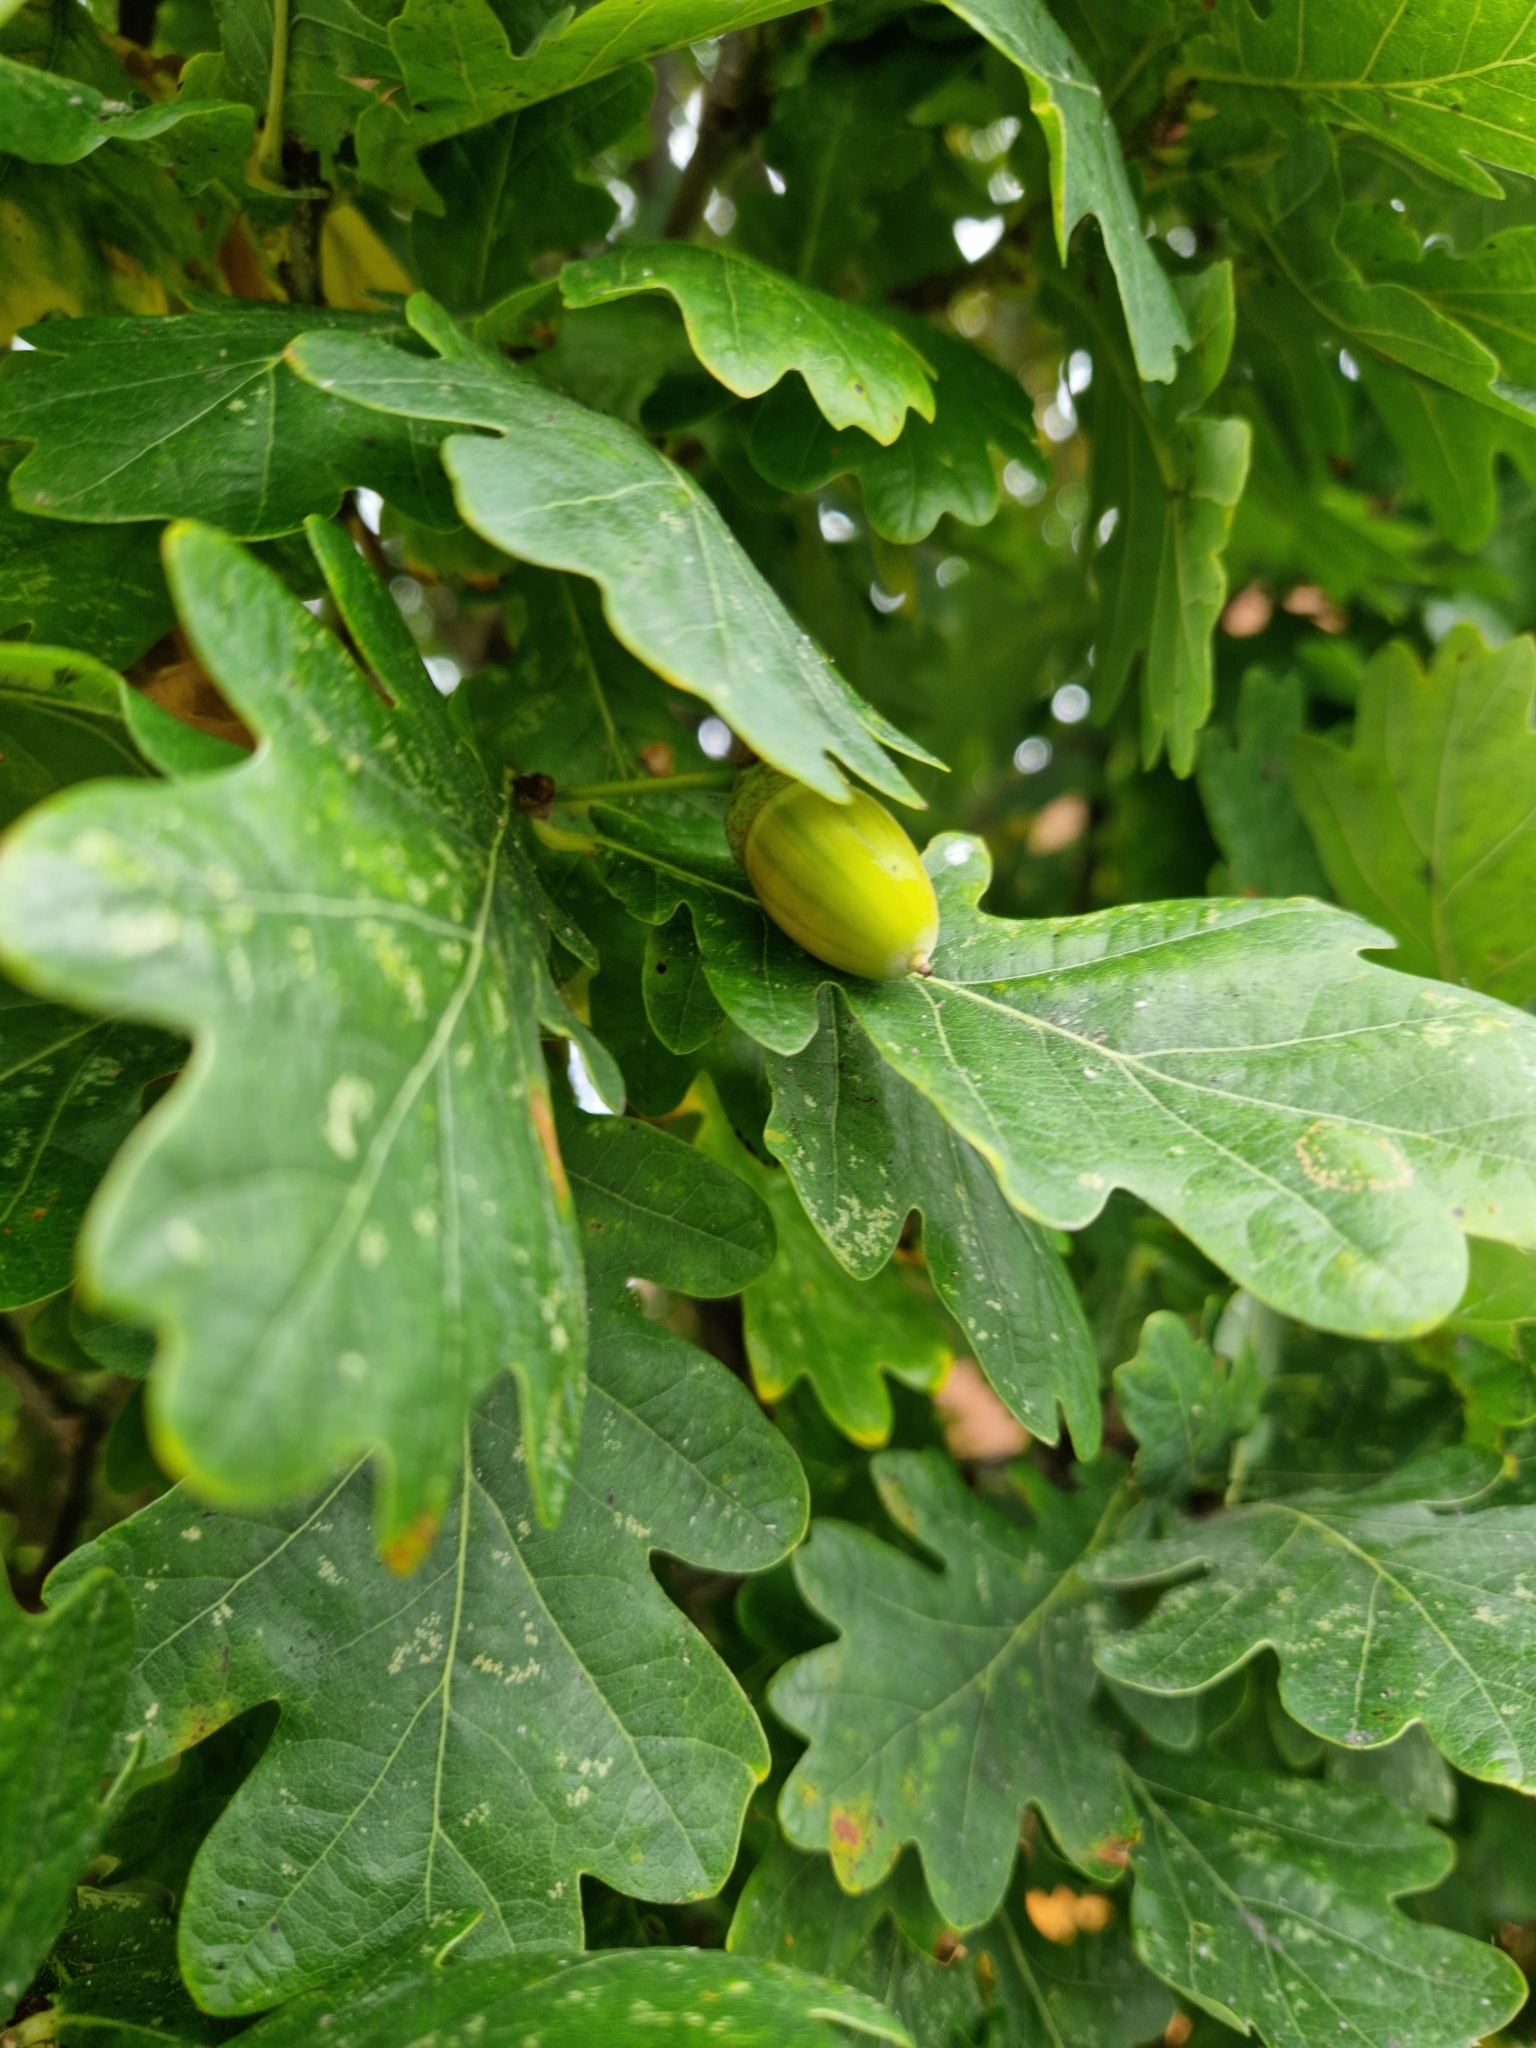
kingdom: Plantae
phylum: Tracheophyta
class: Magnoliopsida
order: Fagales
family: Fagaceae
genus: Quercus
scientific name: Quercus robur
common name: Pedunculate oak
